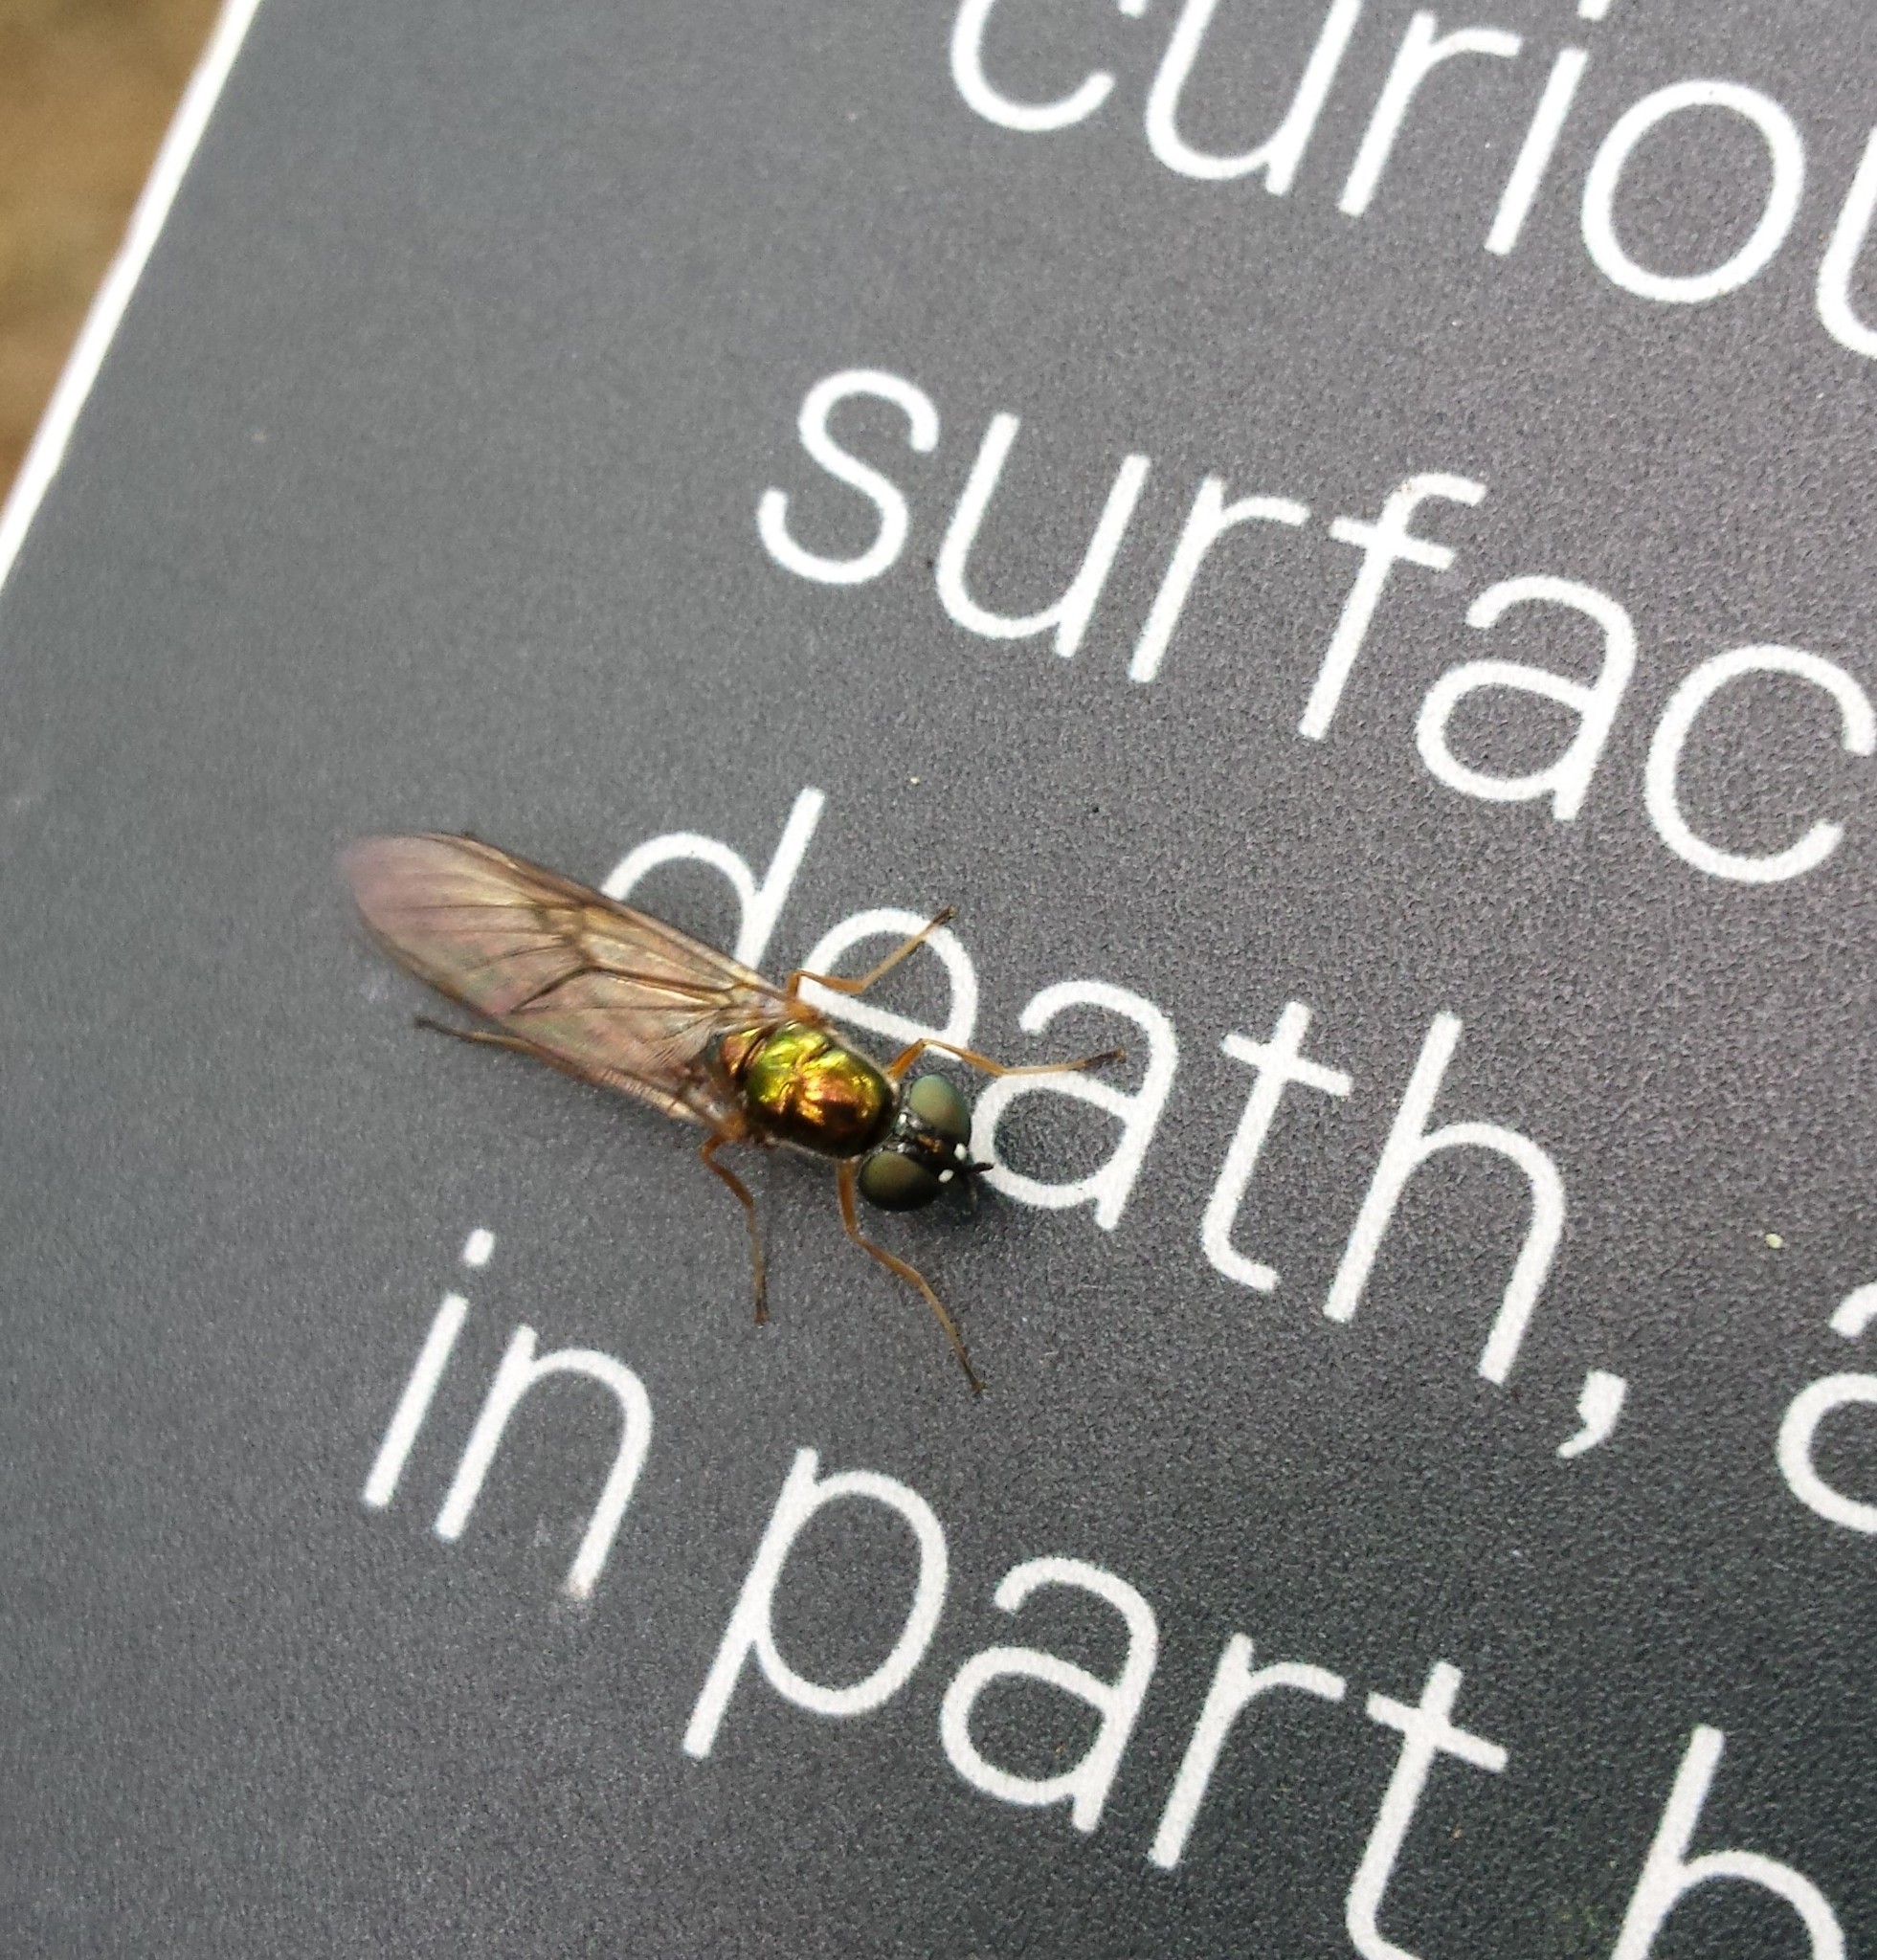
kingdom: Animalia
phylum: Arthropoda
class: Insecta
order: Diptera
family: Stratiomyidae
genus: Sargus
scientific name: Sargus bipunctatus
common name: Twin-spot centurion
